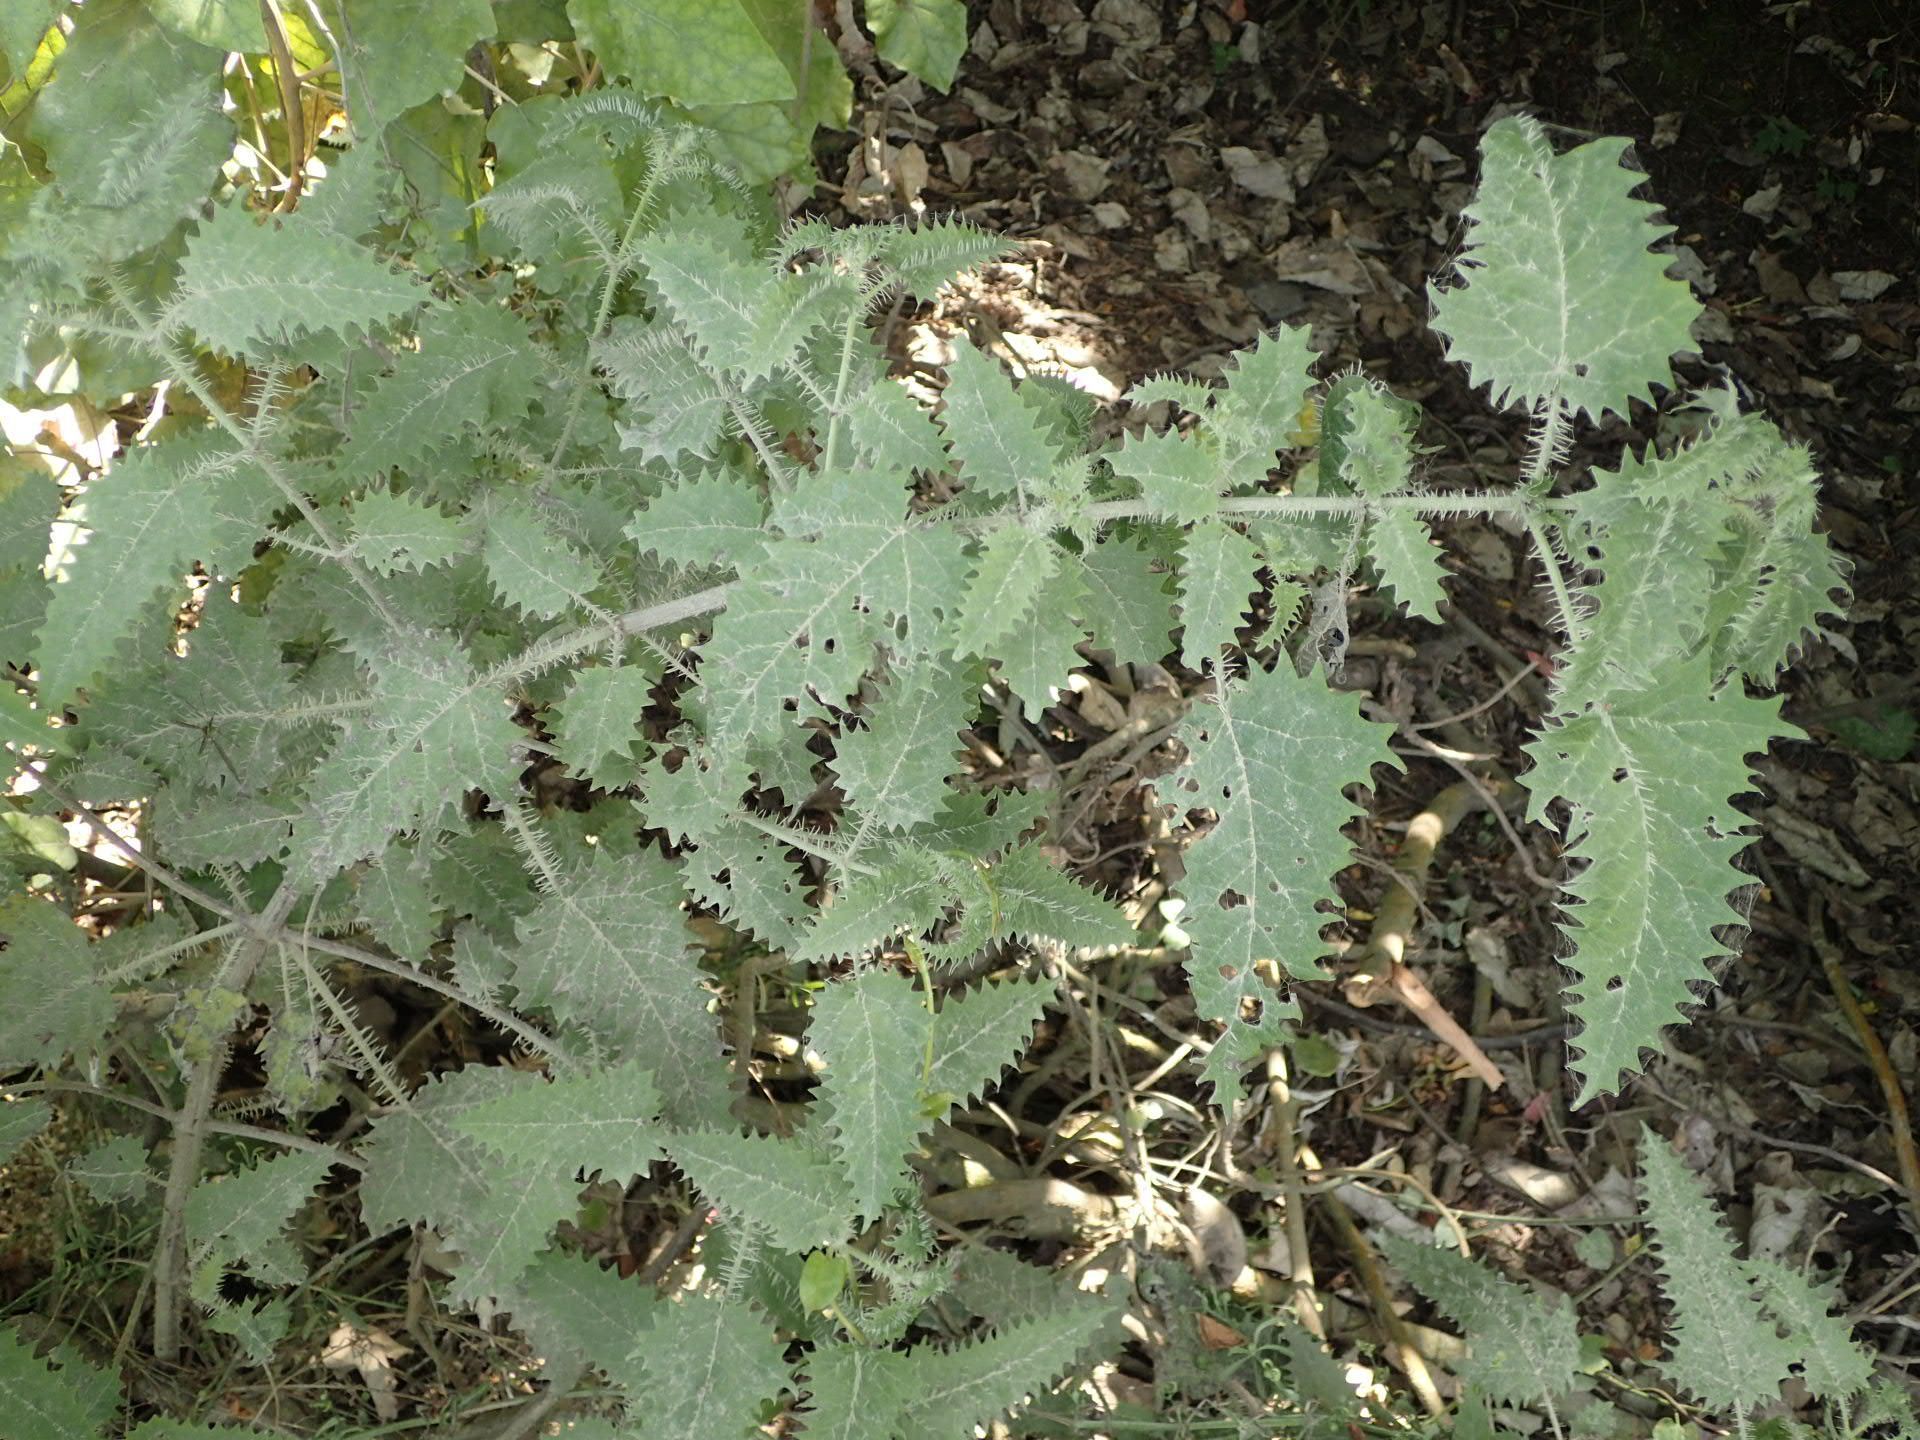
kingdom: Plantae
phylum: Tracheophyta
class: Magnoliopsida
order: Rosales
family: Urticaceae
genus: Urtica
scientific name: Urtica ferox
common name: Tree nettle
